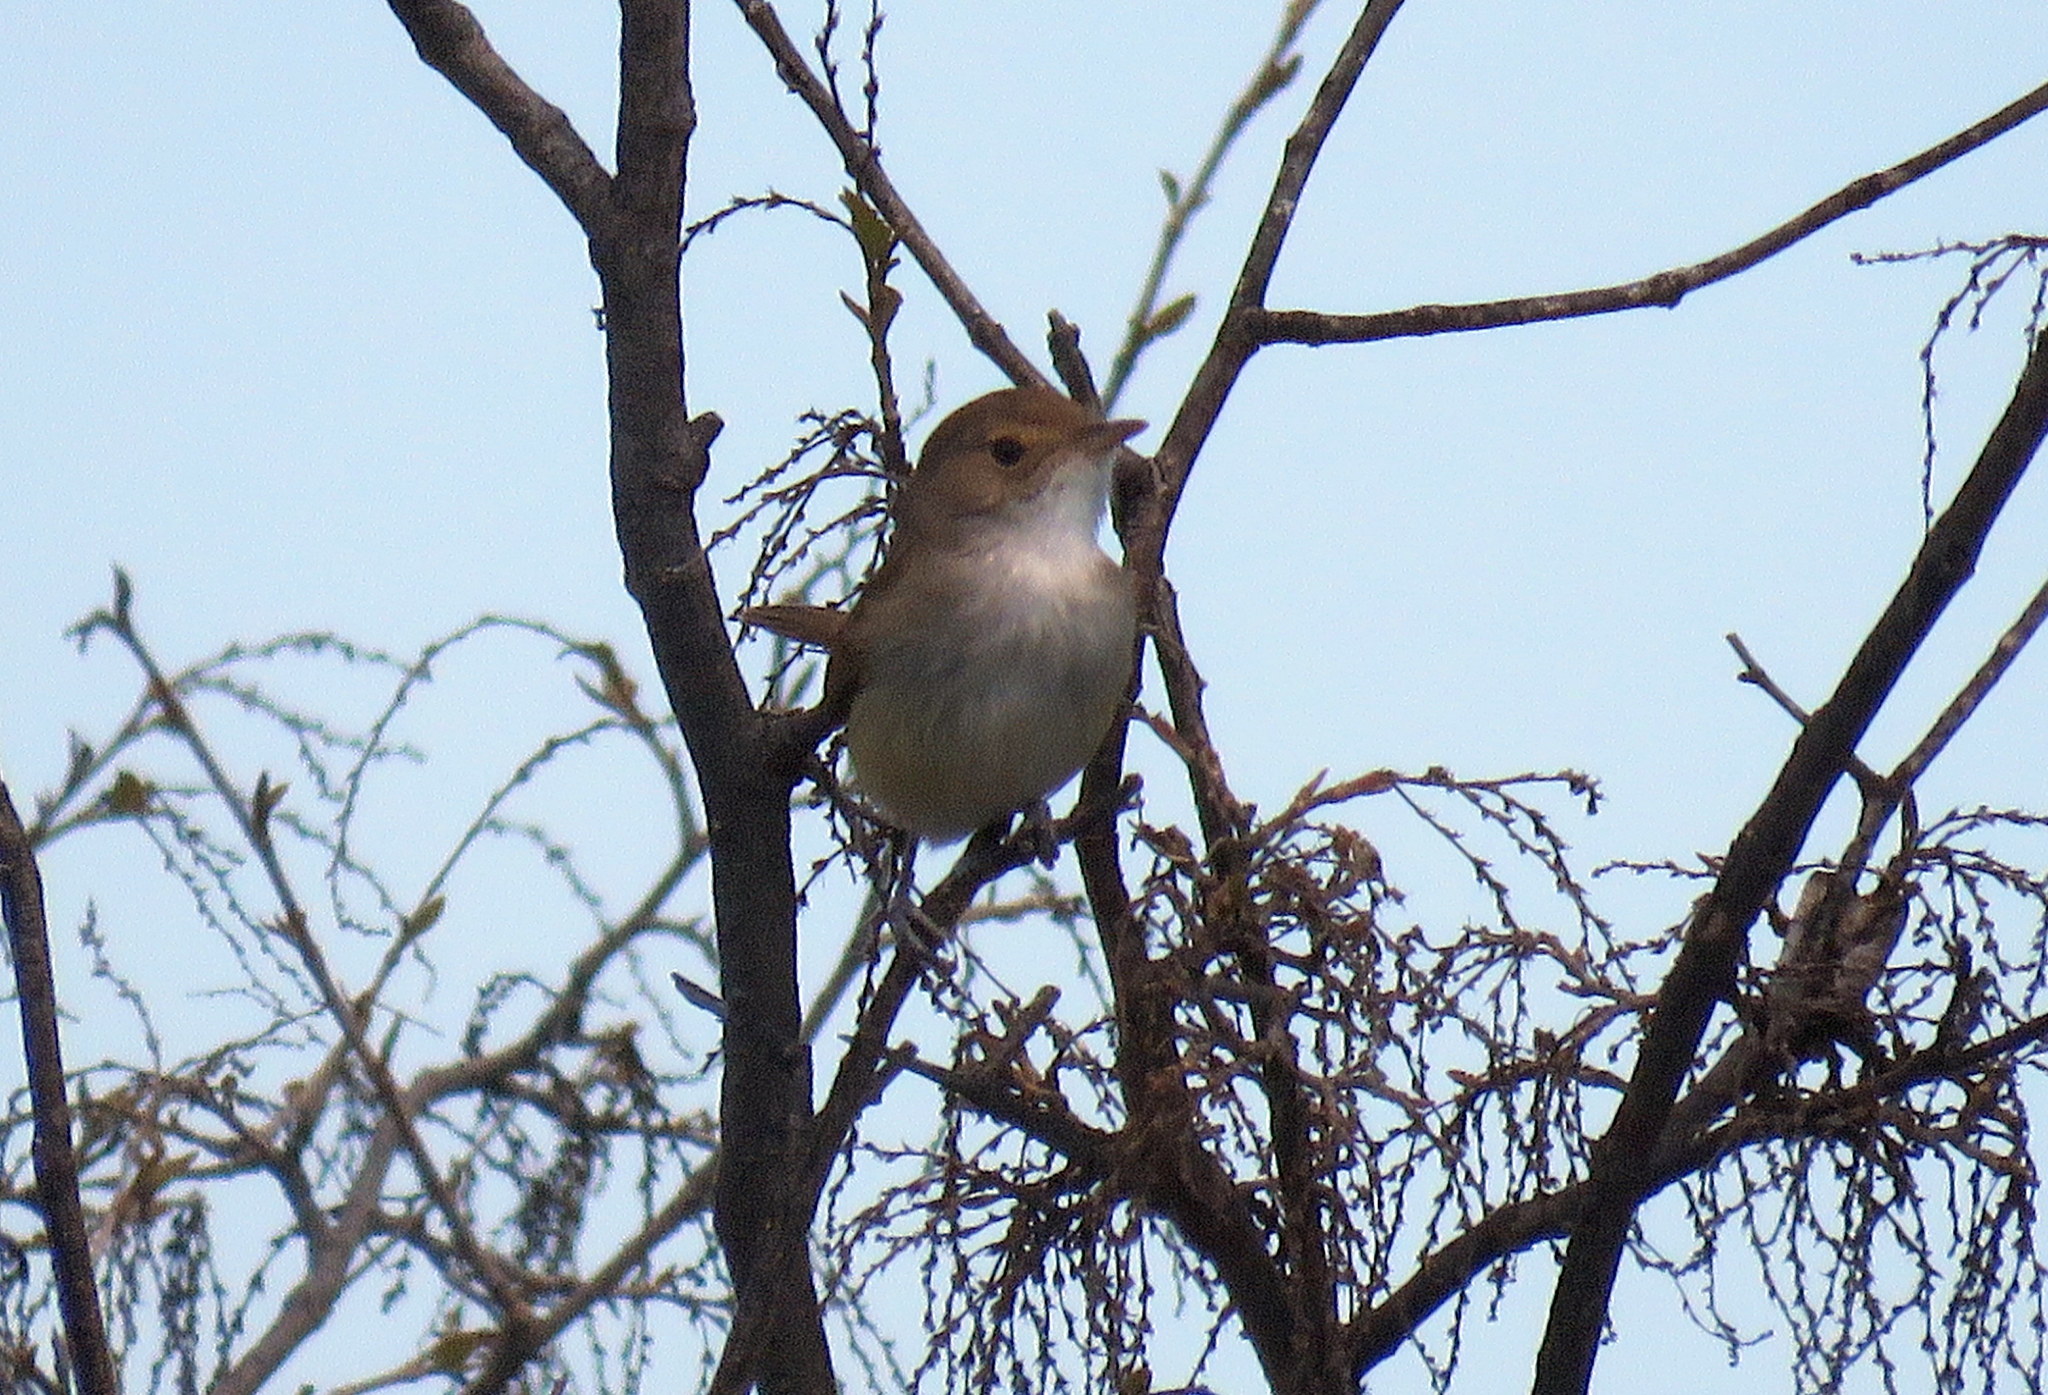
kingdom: Animalia
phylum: Chordata
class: Aves
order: Passeriformes
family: Tyrannidae
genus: Euscarthmus
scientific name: Euscarthmus meloryphus
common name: Tawny-crowned pygmy tyrant
